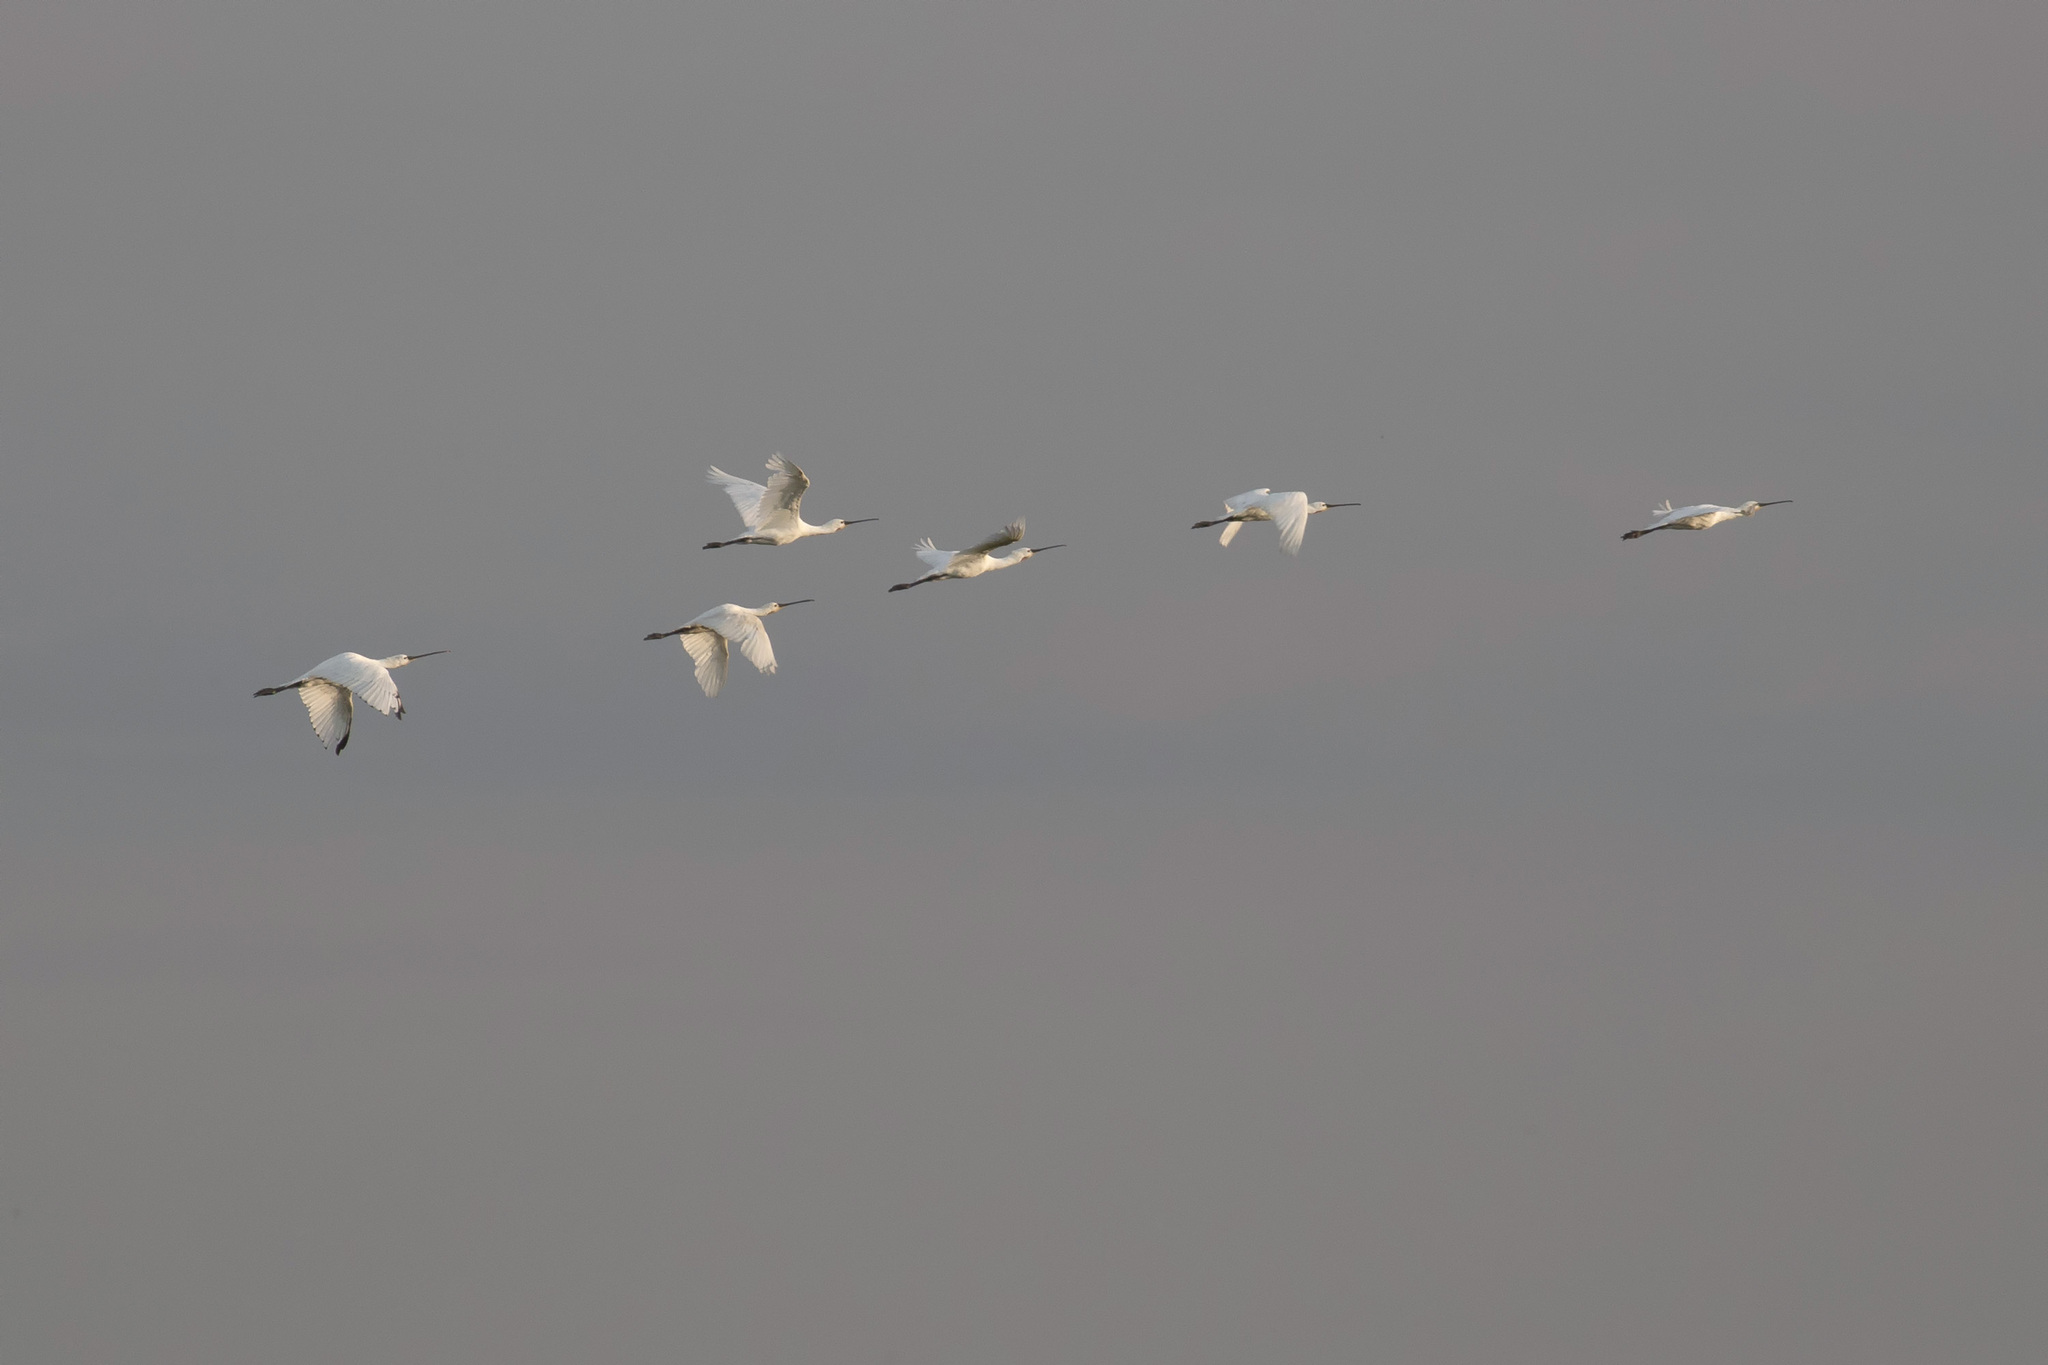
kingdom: Animalia
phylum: Chordata
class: Aves
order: Pelecaniformes
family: Threskiornithidae
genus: Platalea
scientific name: Platalea leucorodia
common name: Eurasian spoonbill
